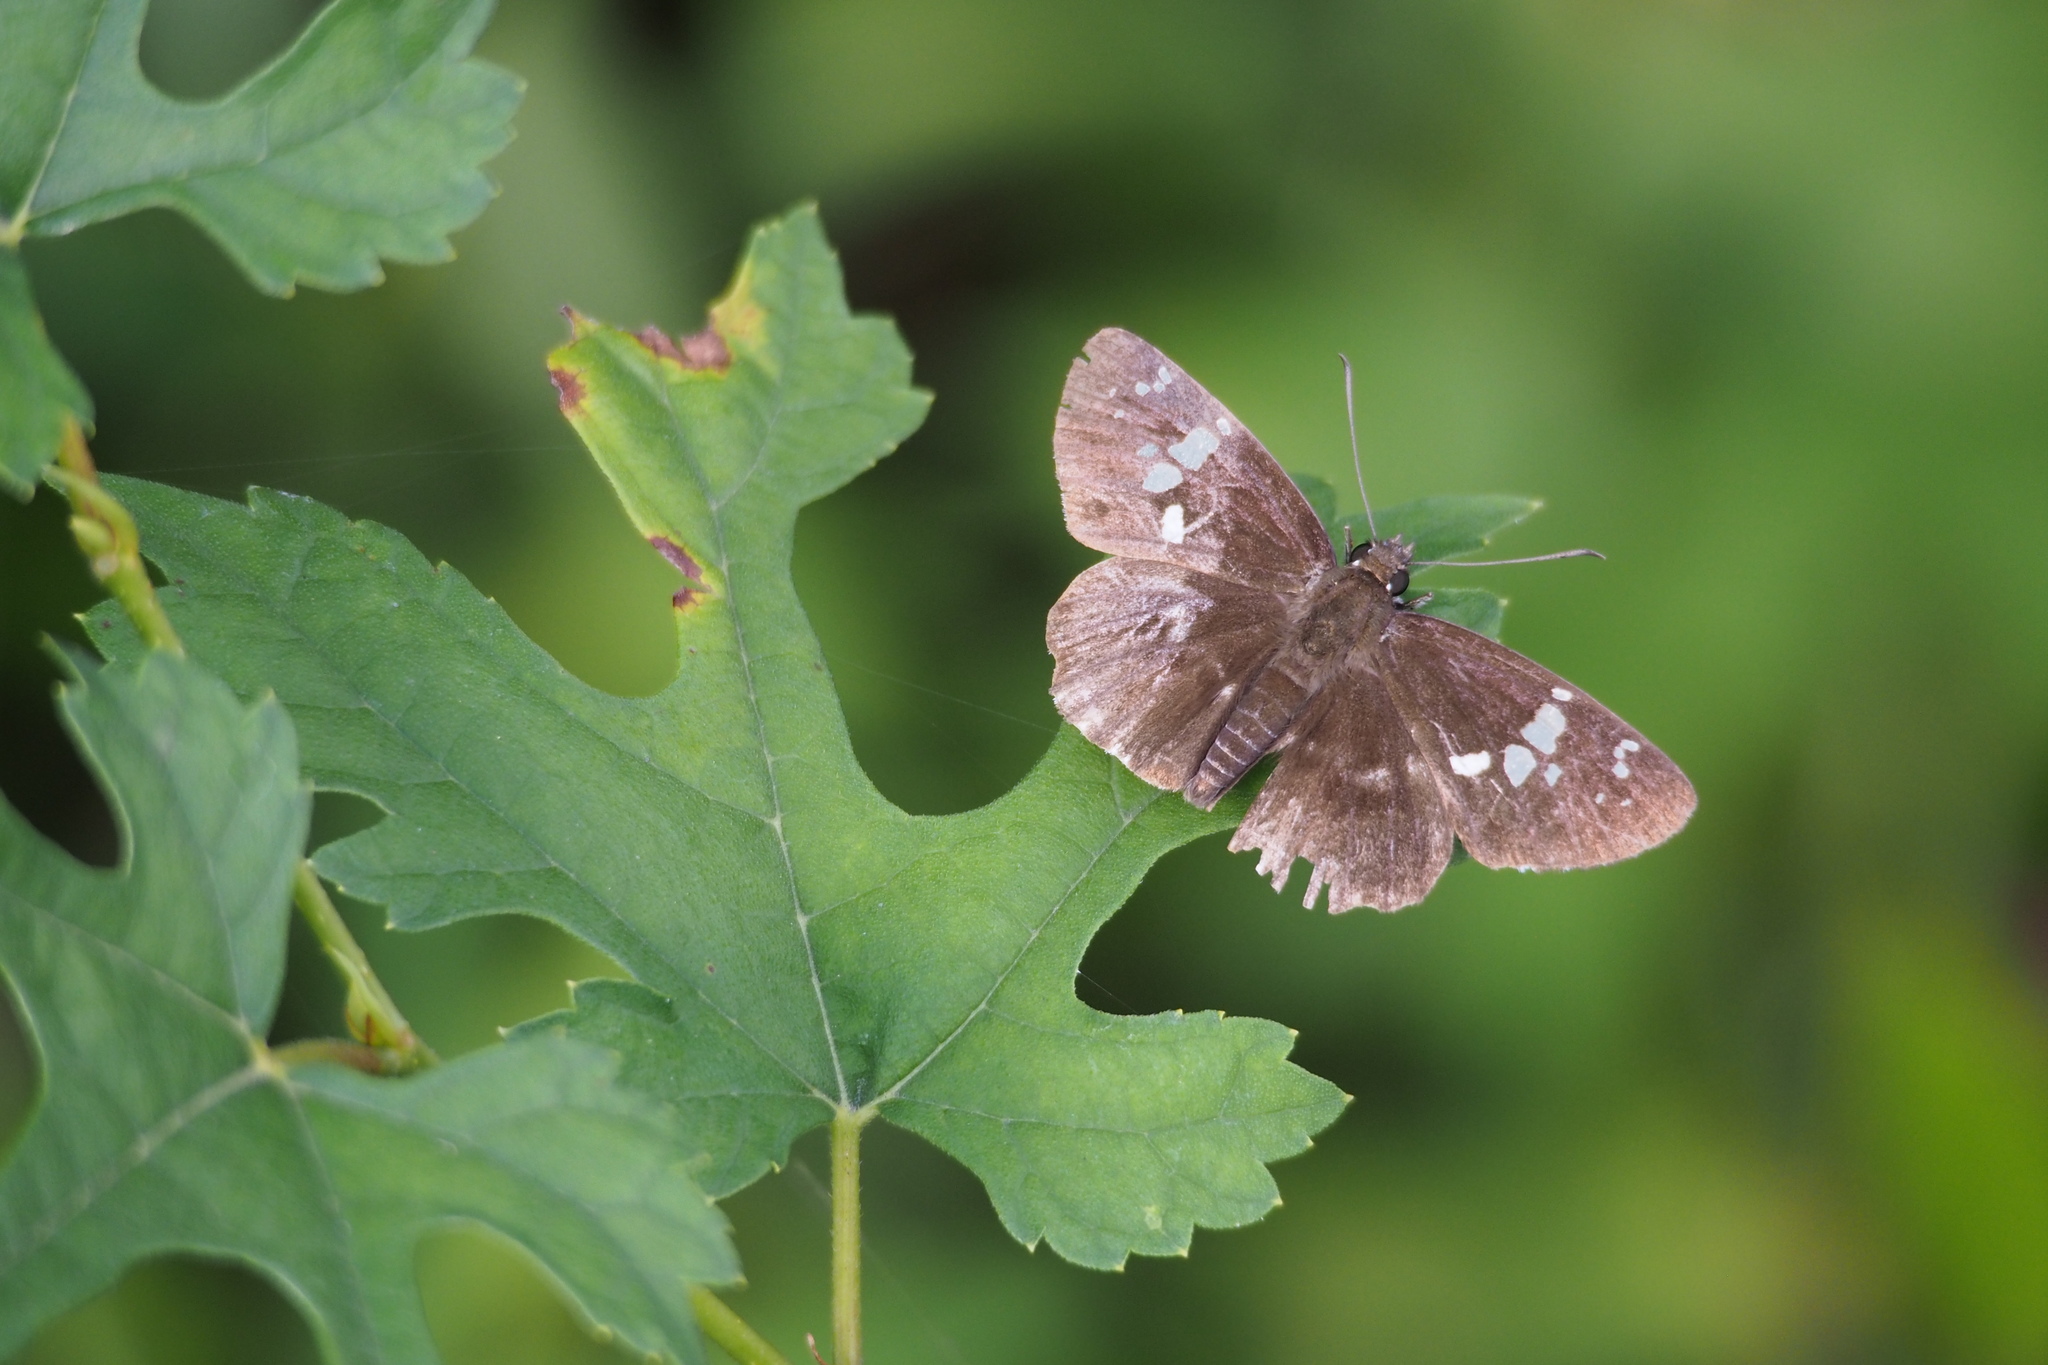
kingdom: Animalia
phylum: Arthropoda
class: Insecta
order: Lepidoptera
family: Hesperiidae
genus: Daimio
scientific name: Daimio tethys
